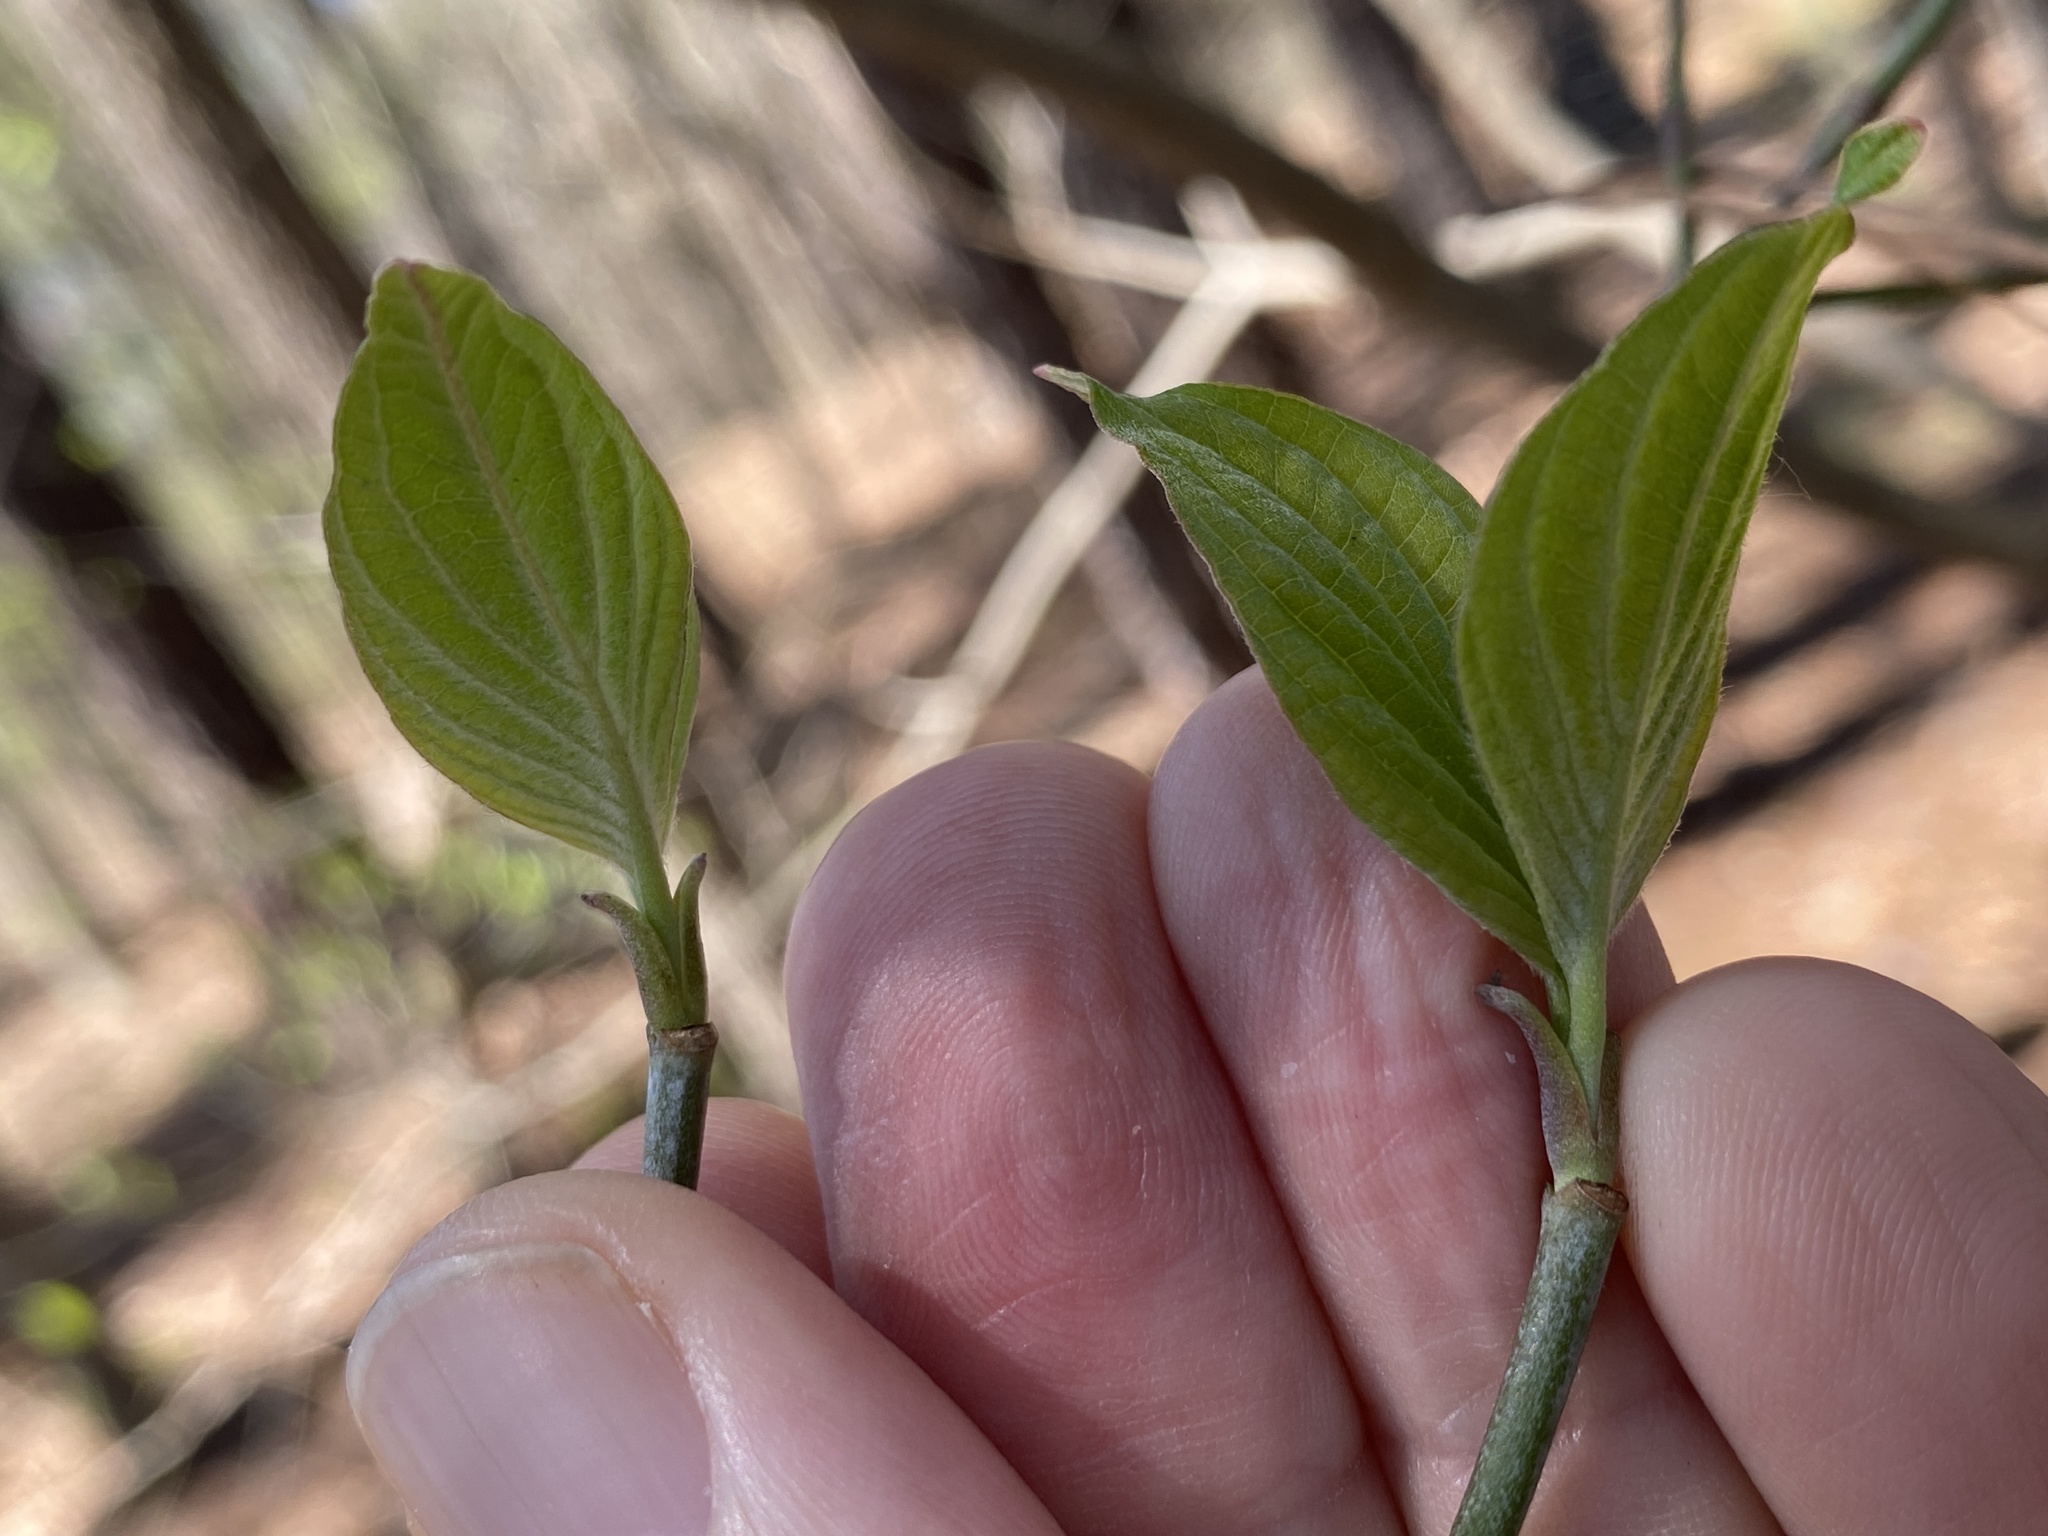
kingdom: Plantae
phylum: Tracheophyta
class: Magnoliopsida
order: Cornales
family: Cornaceae
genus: Cornus
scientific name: Cornus florida
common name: Flowering dogwood
